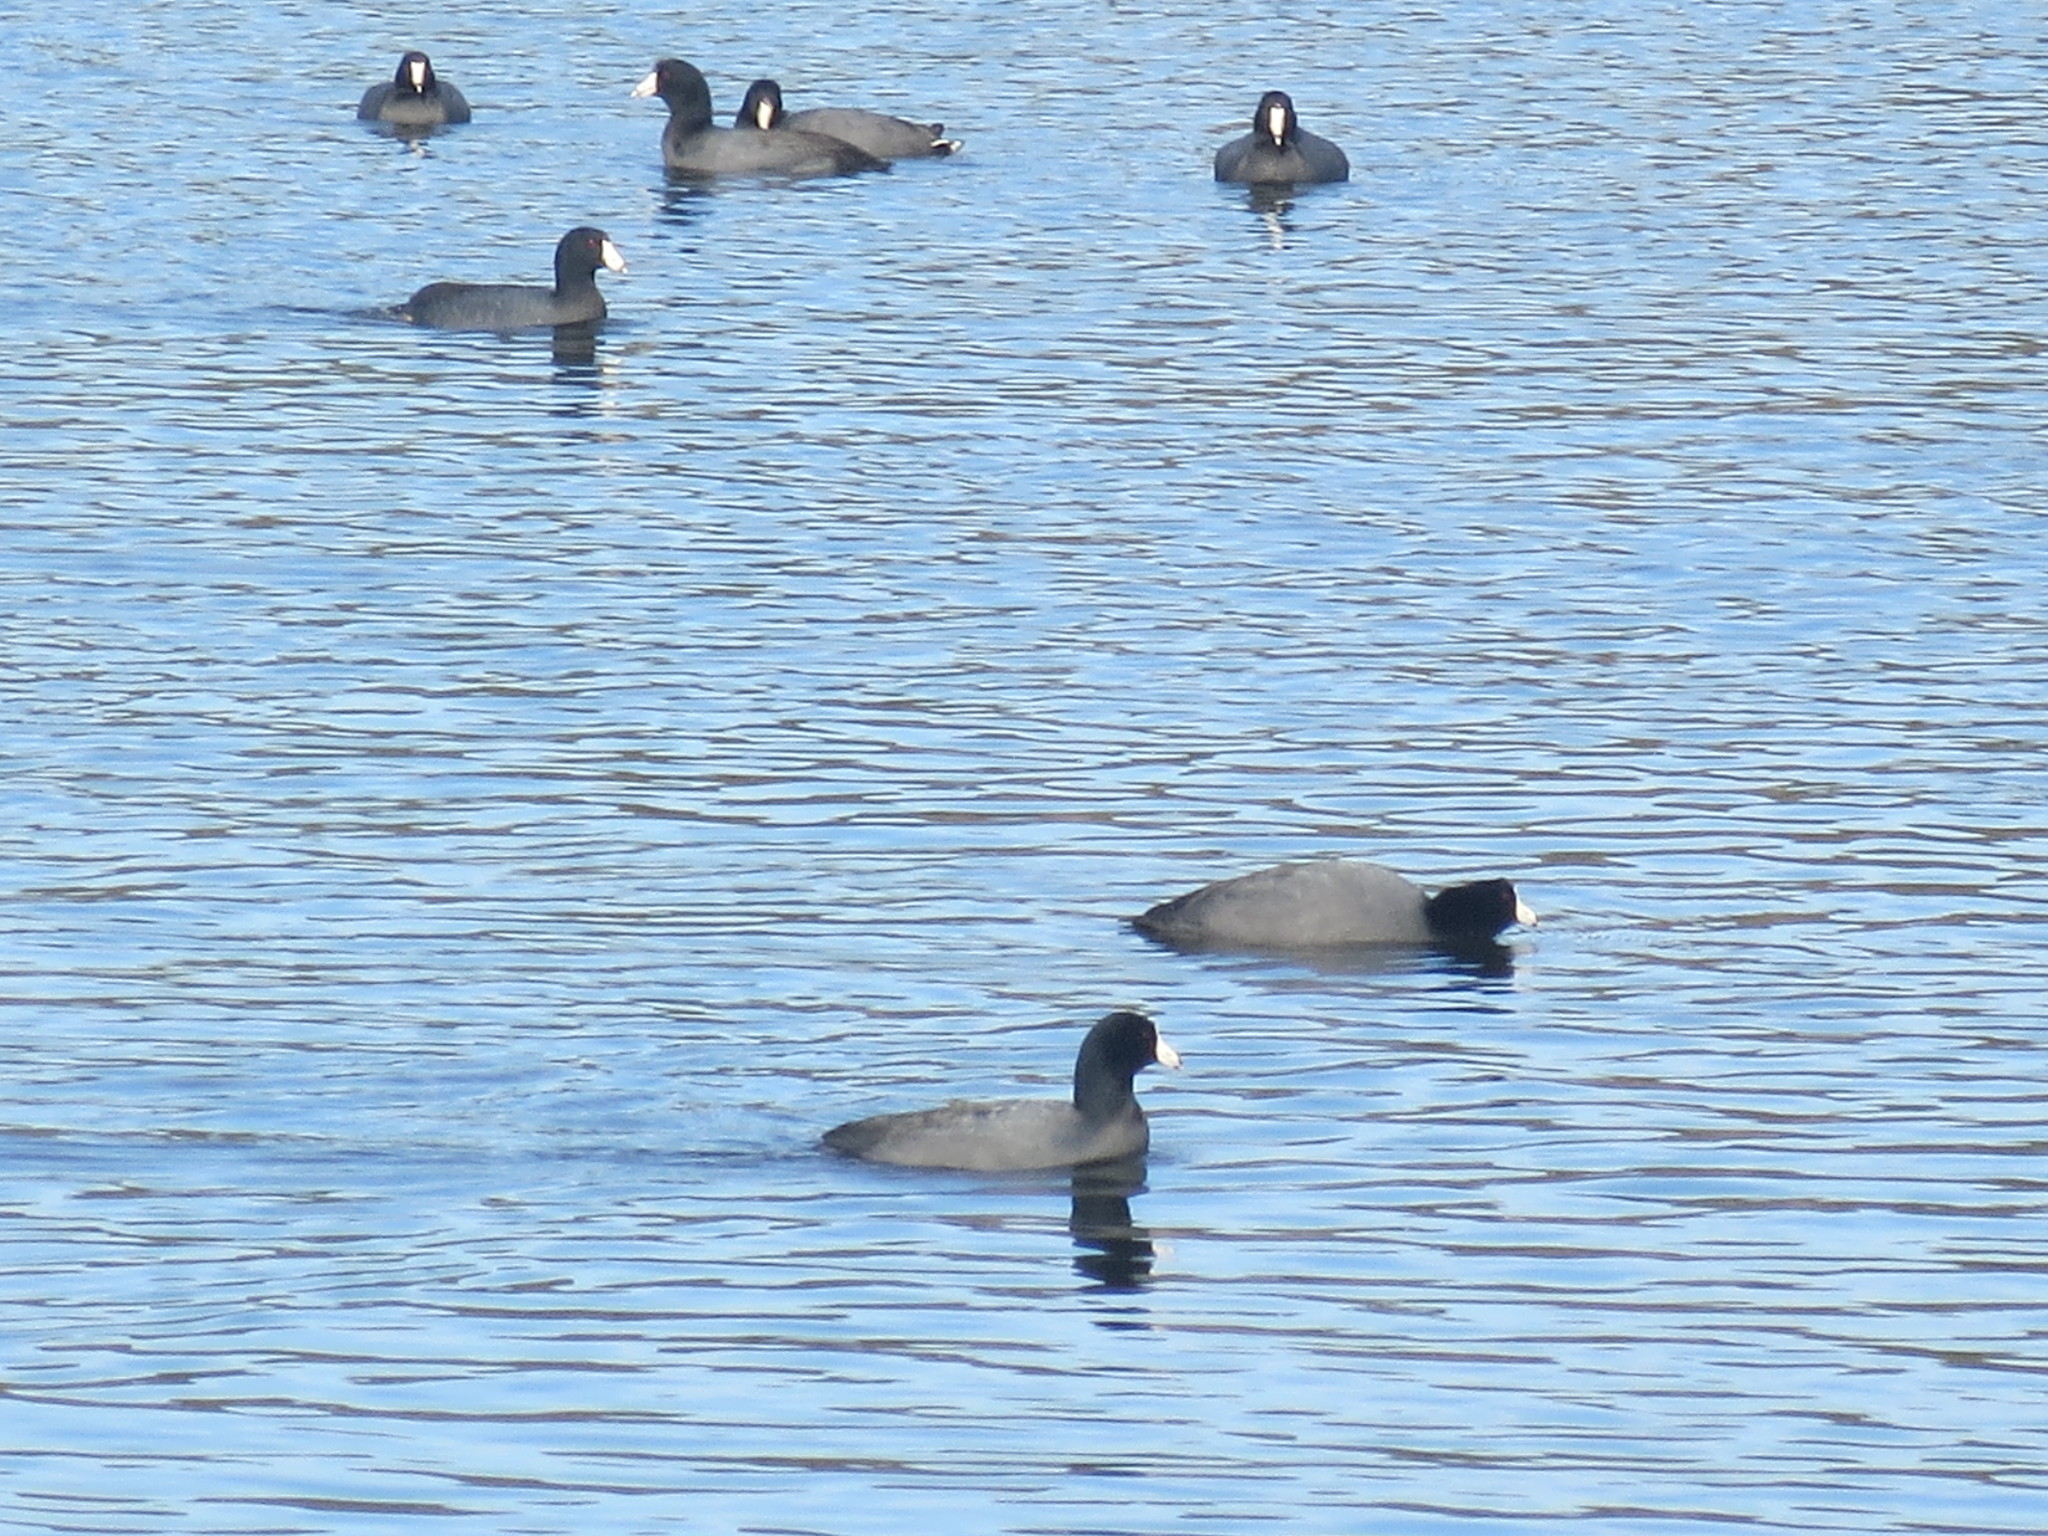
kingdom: Animalia
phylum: Chordata
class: Aves
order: Gruiformes
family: Rallidae
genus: Fulica
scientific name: Fulica americana
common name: American coot
